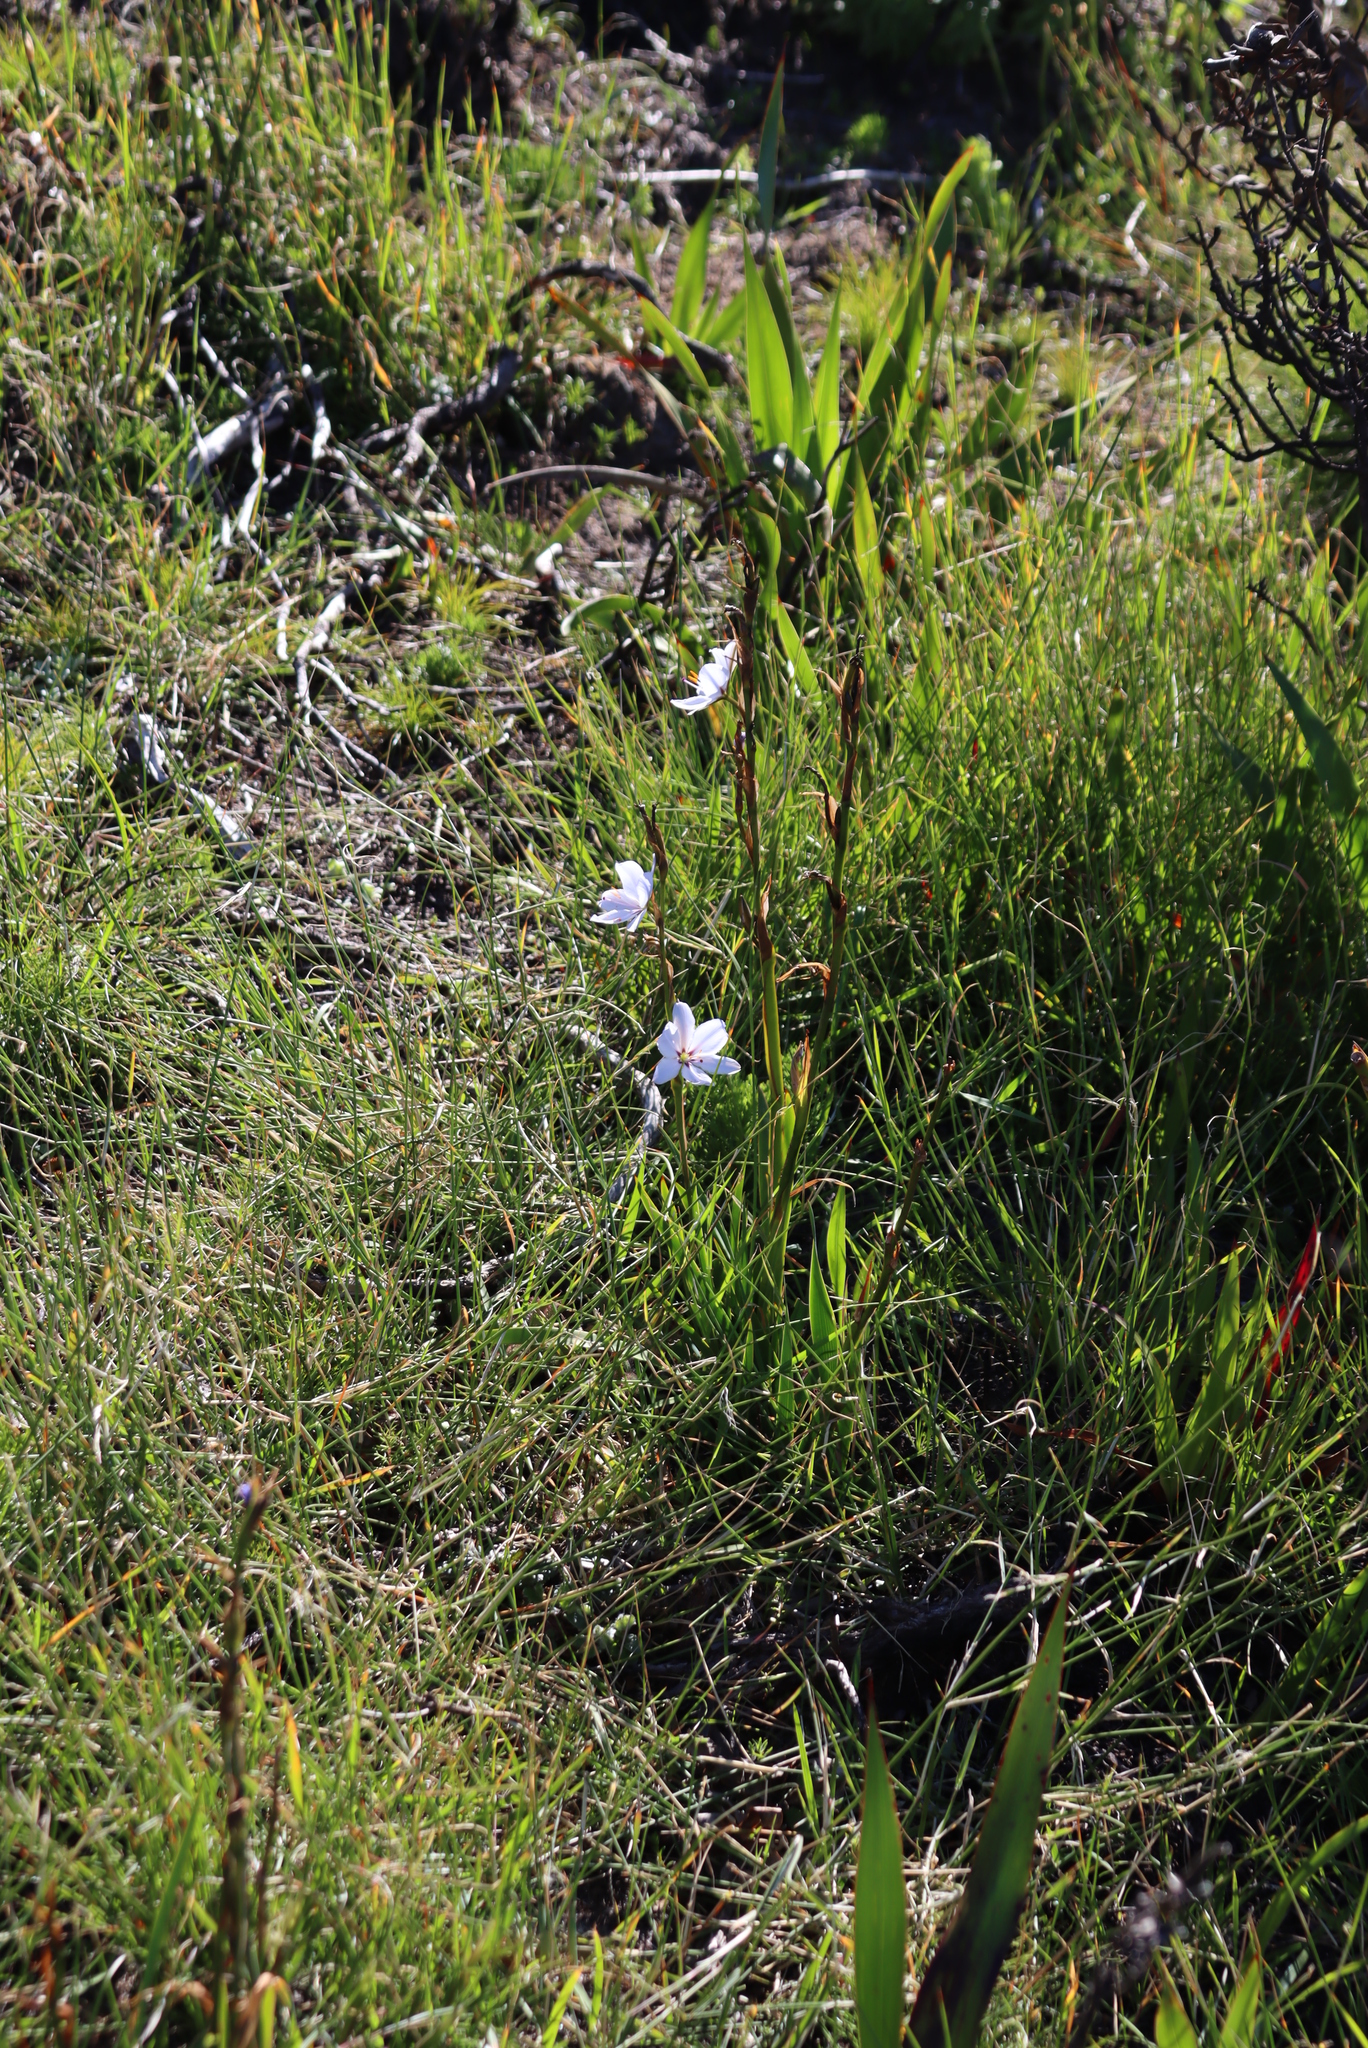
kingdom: Plantae
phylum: Tracheophyta
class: Liliopsida
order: Asparagales
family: Iridaceae
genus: Aristea
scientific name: Aristea spiralis
